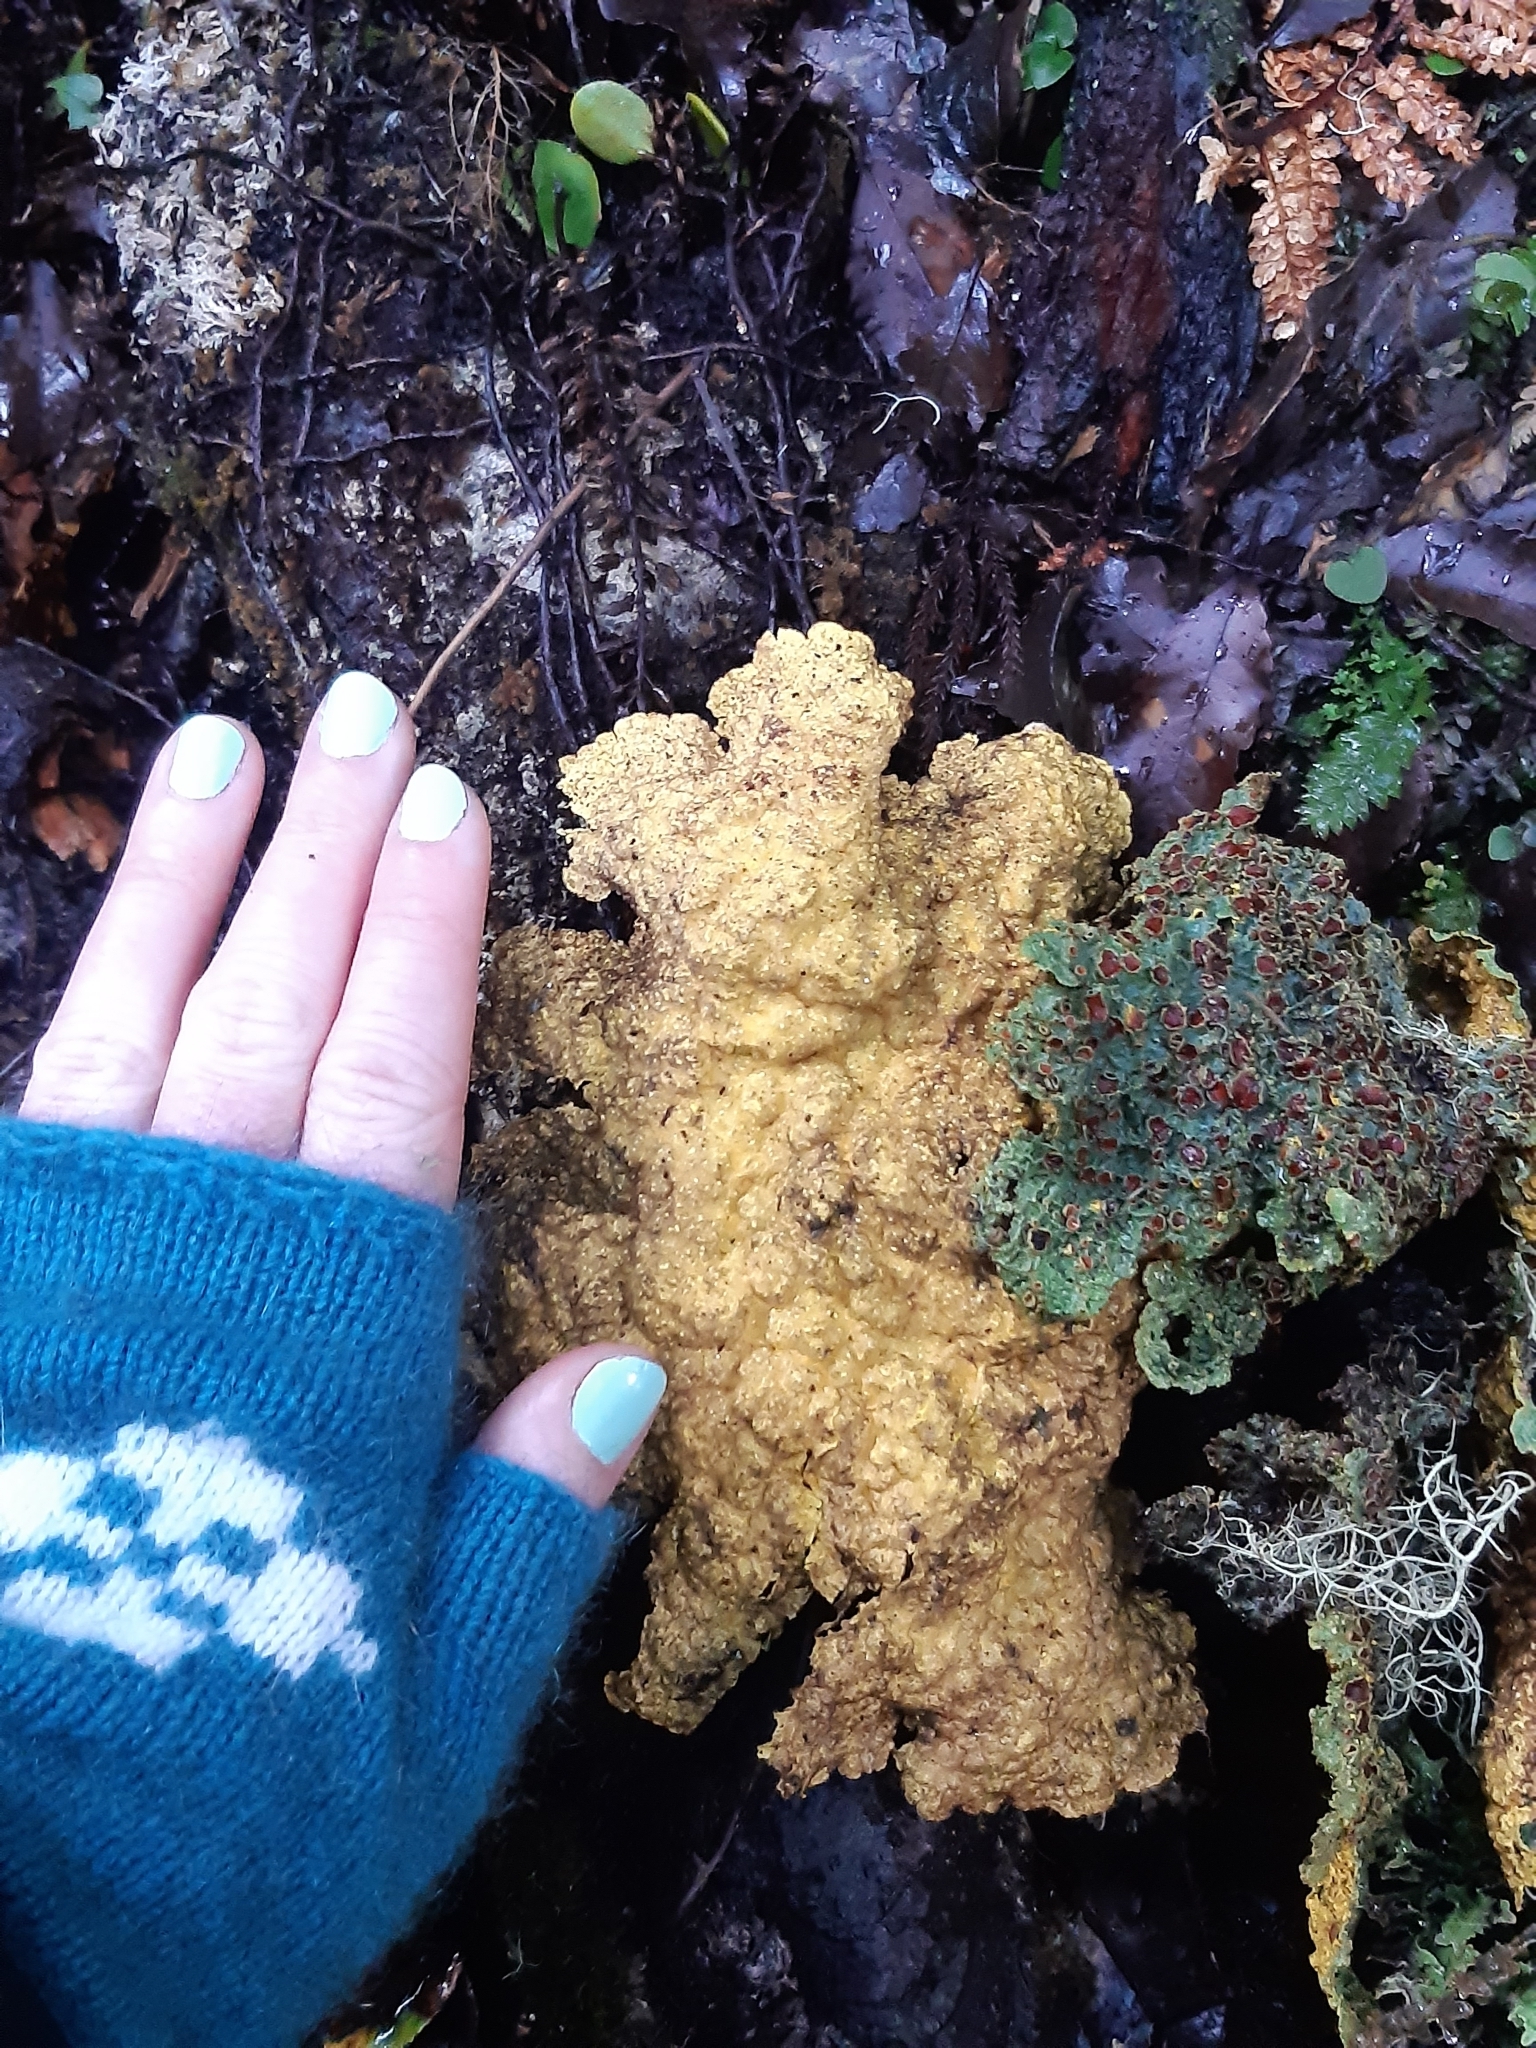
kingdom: Fungi
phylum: Ascomycota
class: Lecanoromycetes
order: Peltigerales
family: Lobariaceae
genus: Yarrumia
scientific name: Yarrumia coronata
